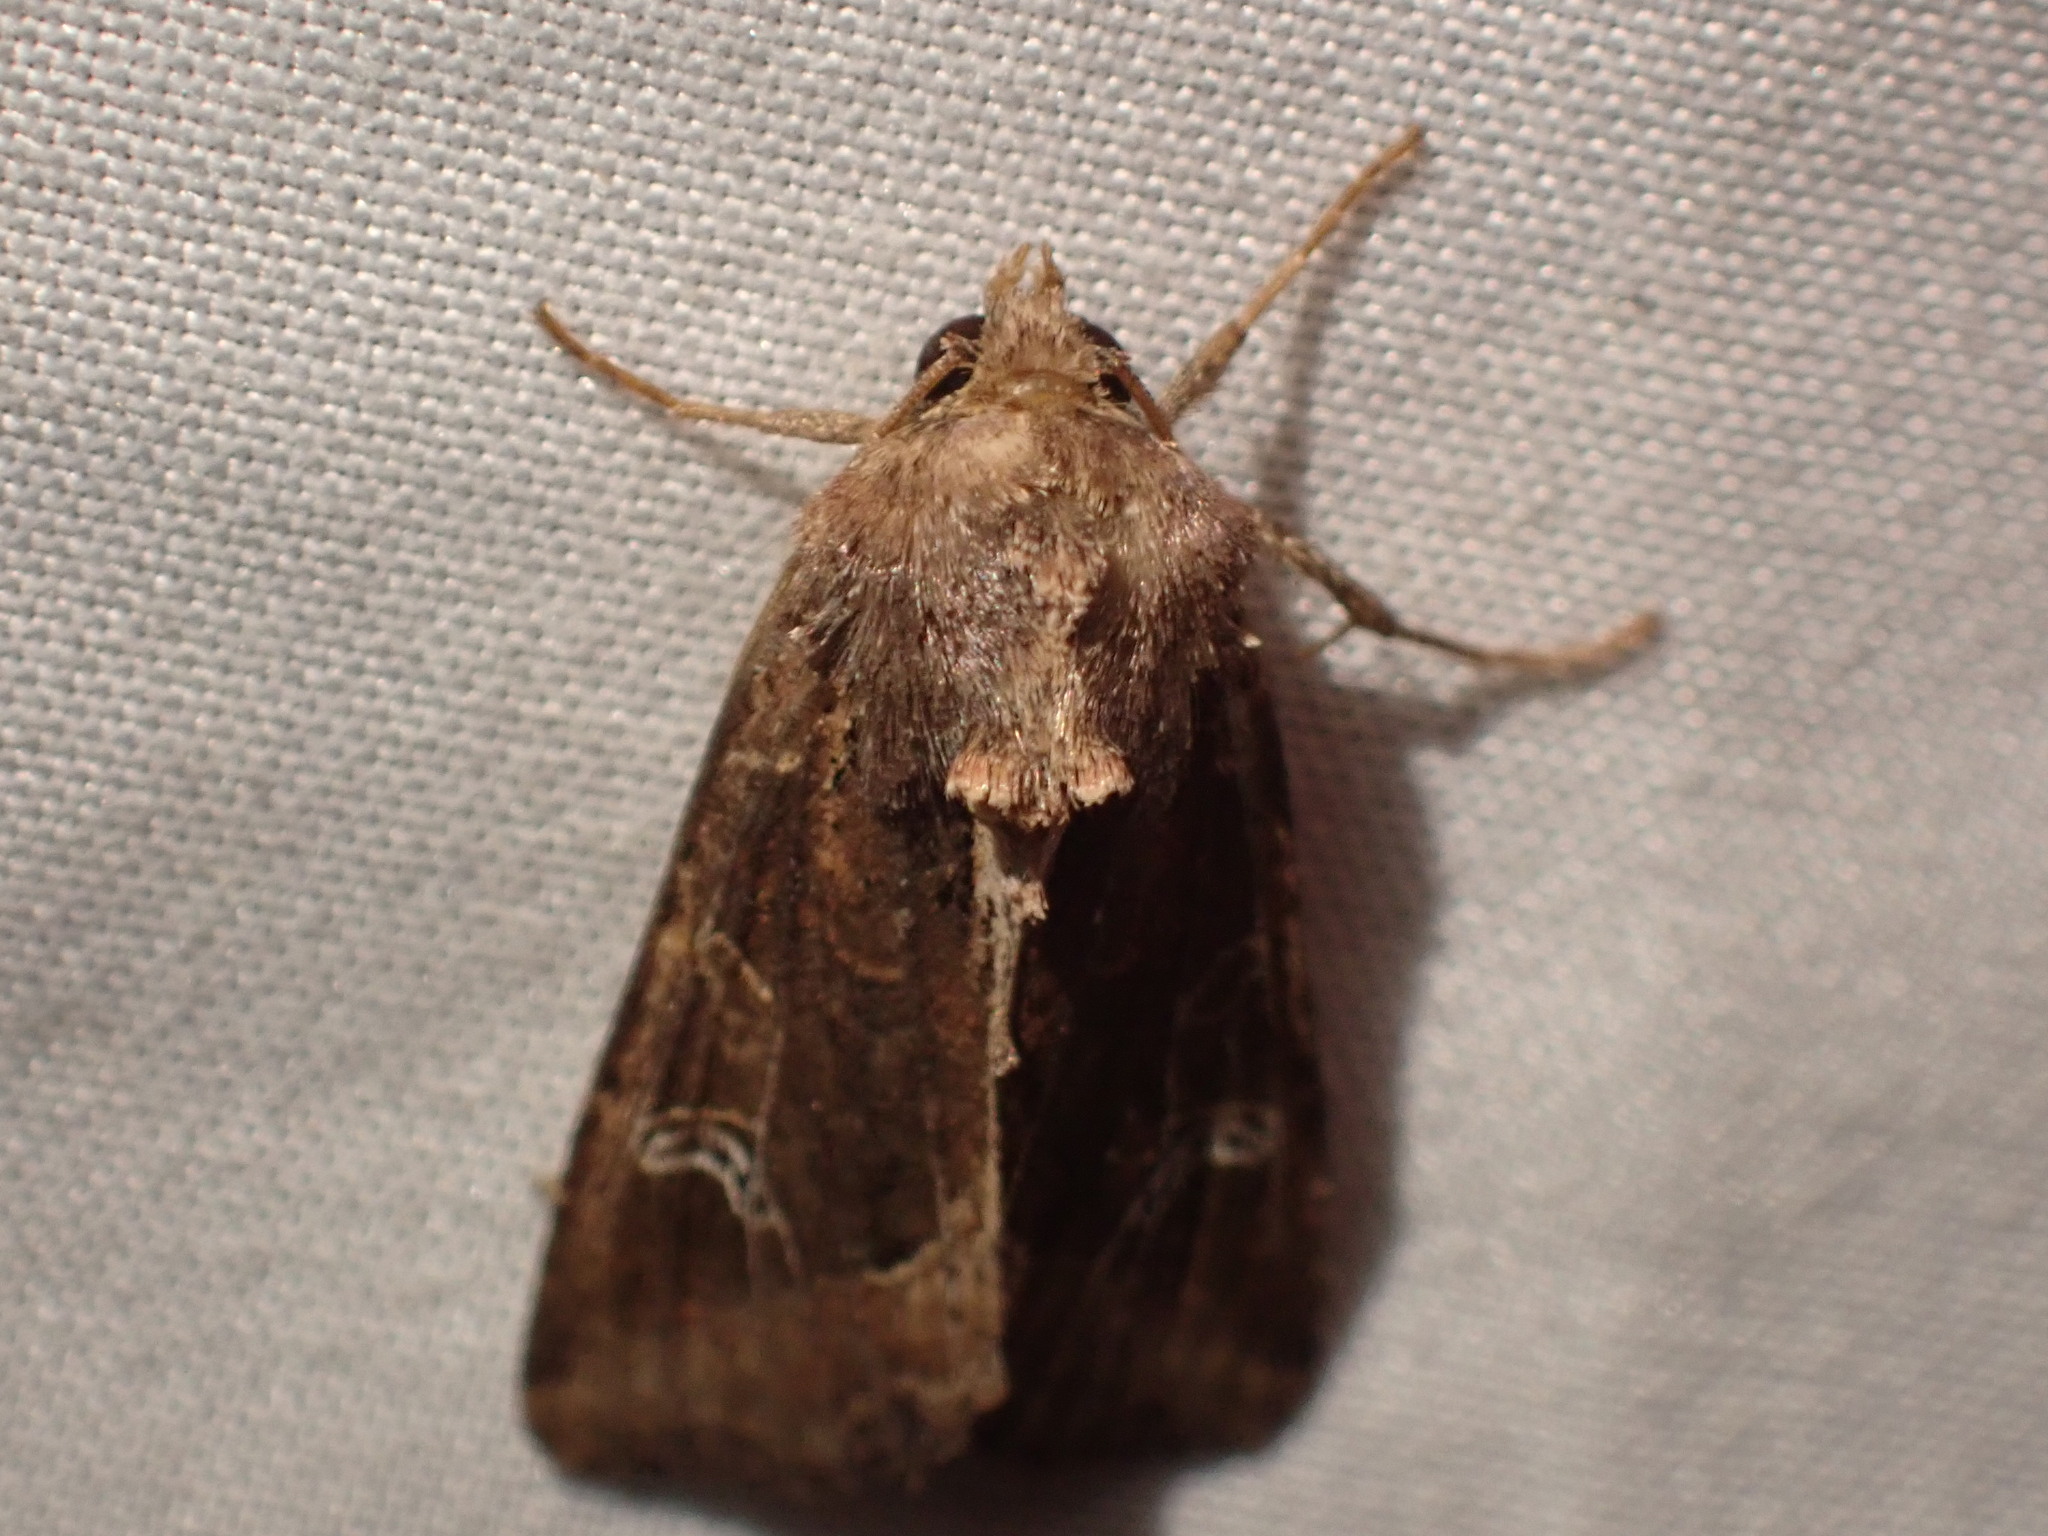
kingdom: Animalia
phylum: Arthropoda
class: Insecta
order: Lepidoptera
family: Noctuidae
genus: Helotropha
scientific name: Helotropha reniformis
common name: Kidney-spotted rustic moth
